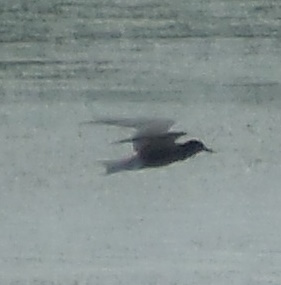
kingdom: Animalia
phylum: Chordata
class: Aves
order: Charadriiformes
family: Laridae
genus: Chlidonias
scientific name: Chlidonias niger
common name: Black tern
